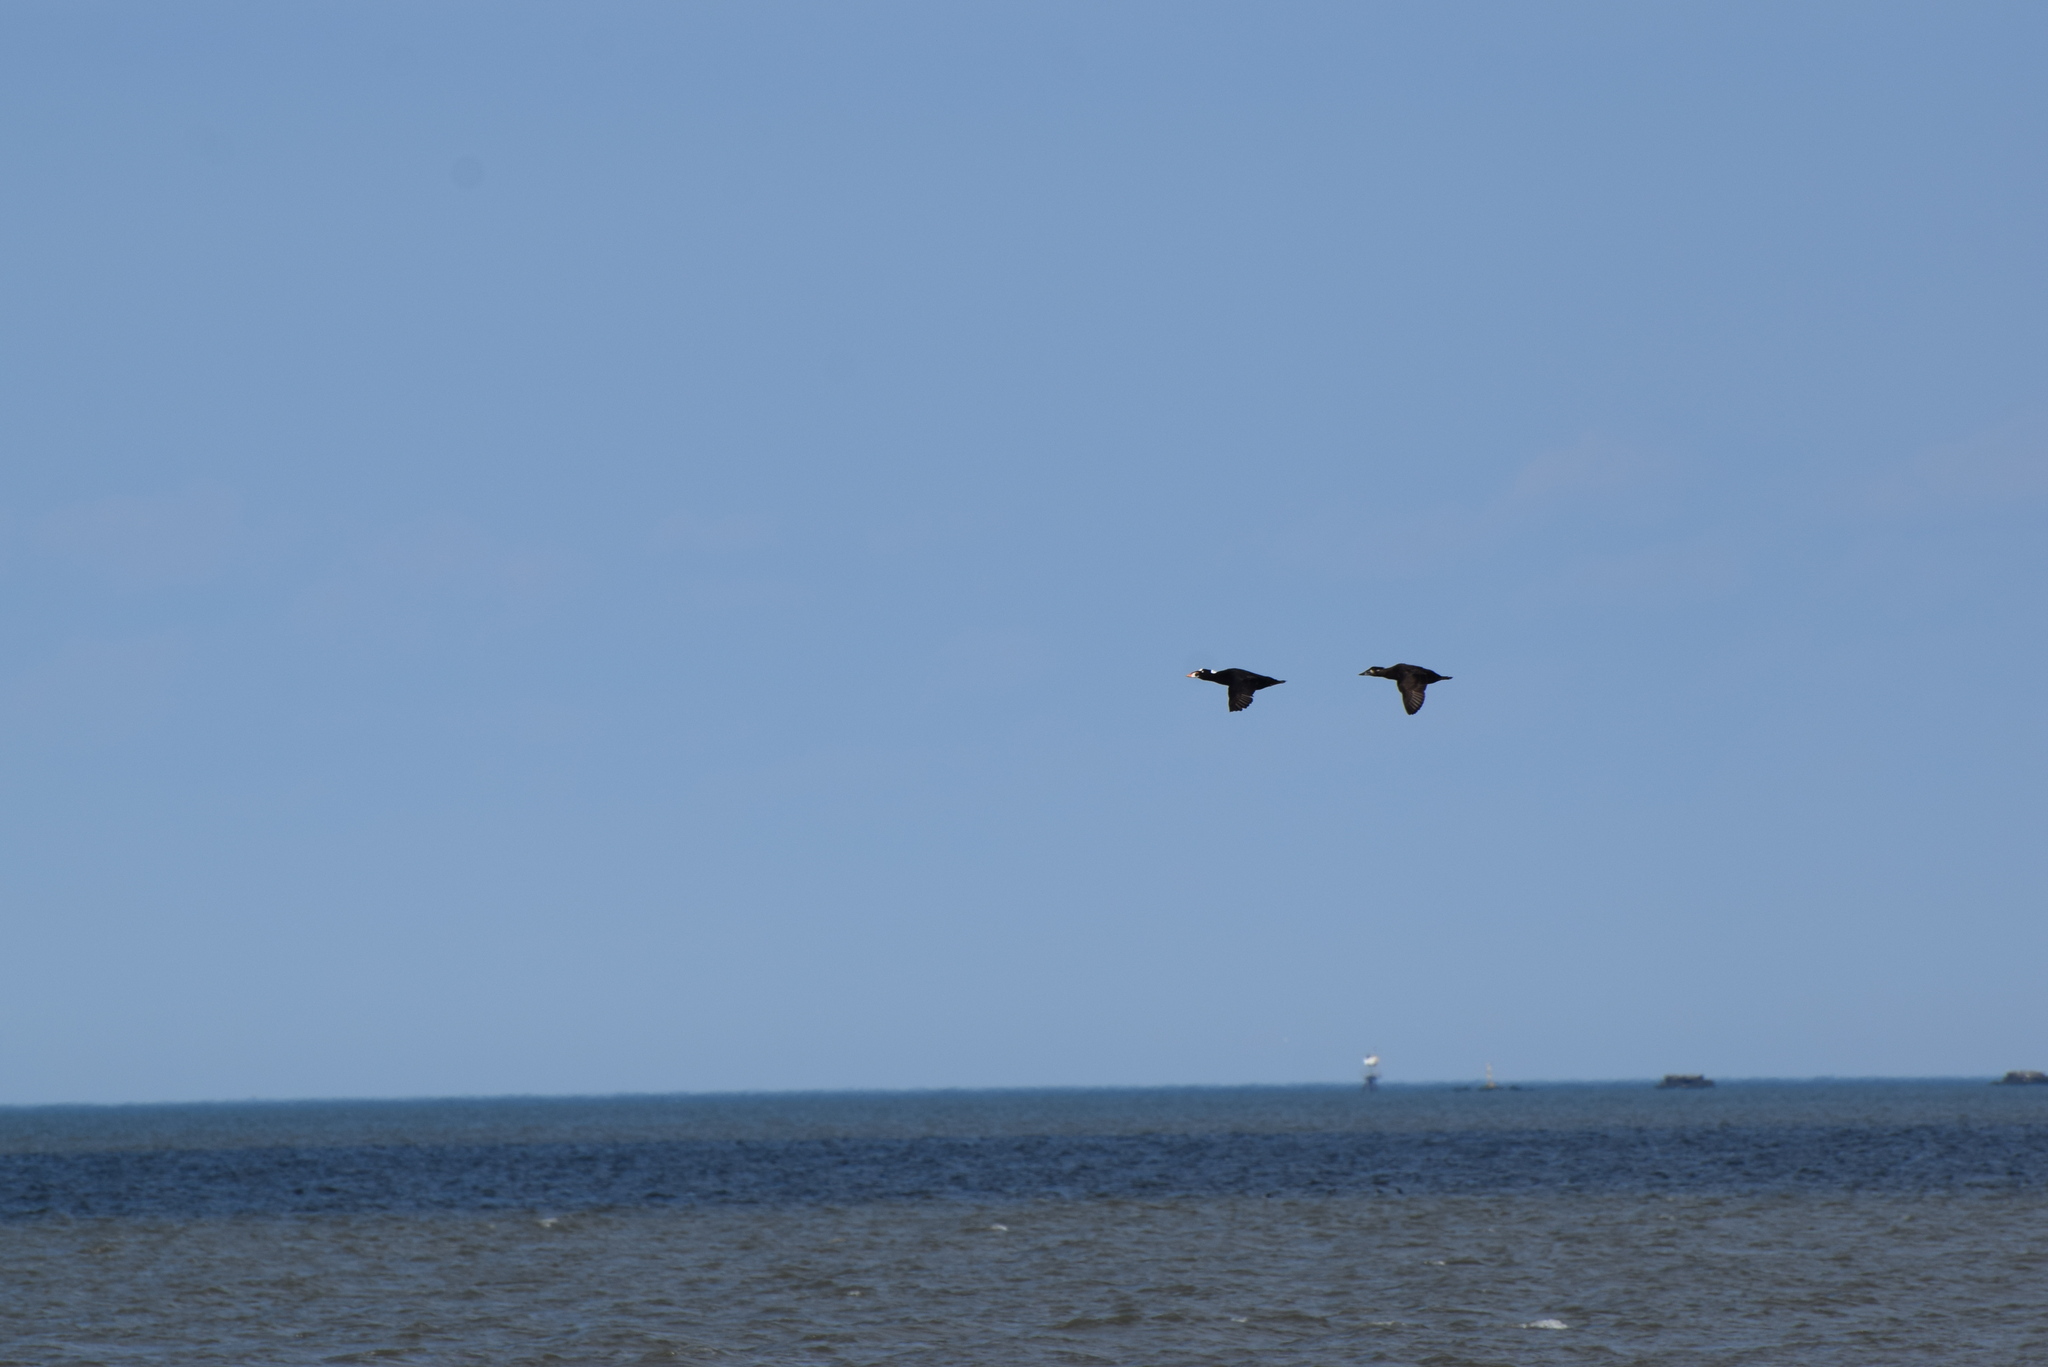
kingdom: Animalia
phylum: Chordata
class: Aves
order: Anseriformes
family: Anatidae
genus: Melanitta
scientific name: Melanitta perspicillata
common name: Surf scoter
